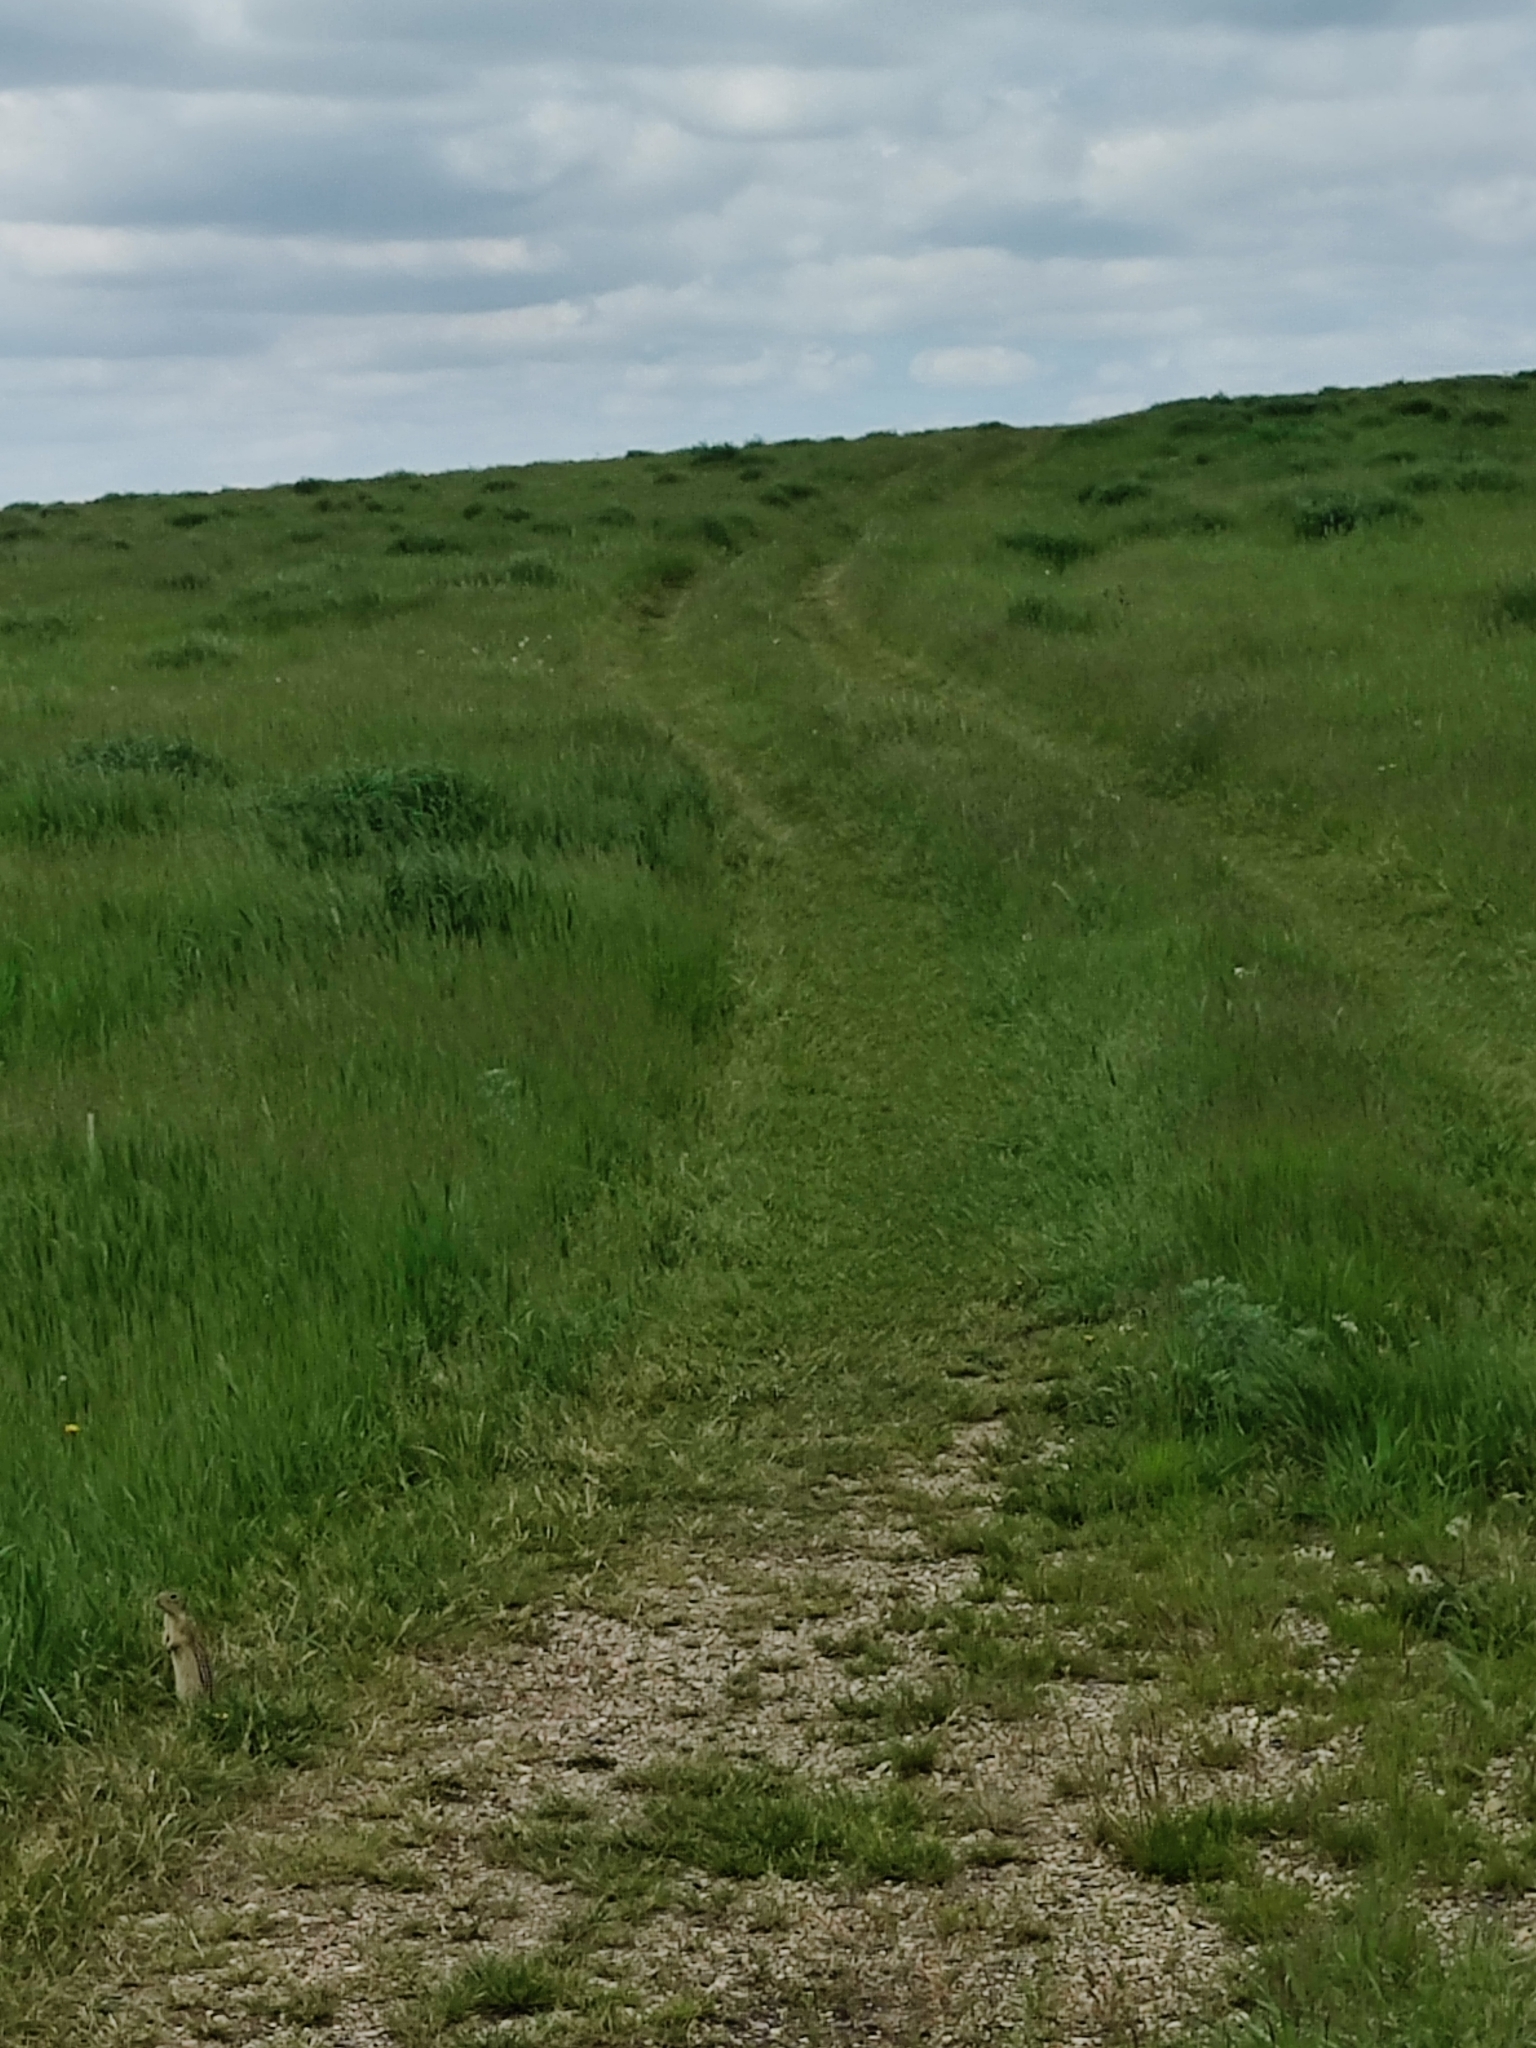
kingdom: Animalia
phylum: Chordata
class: Mammalia
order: Rodentia
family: Sciuridae
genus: Ictidomys
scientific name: Ictidomys tridecemlineatus
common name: Thirteen-lined ground squirrel
